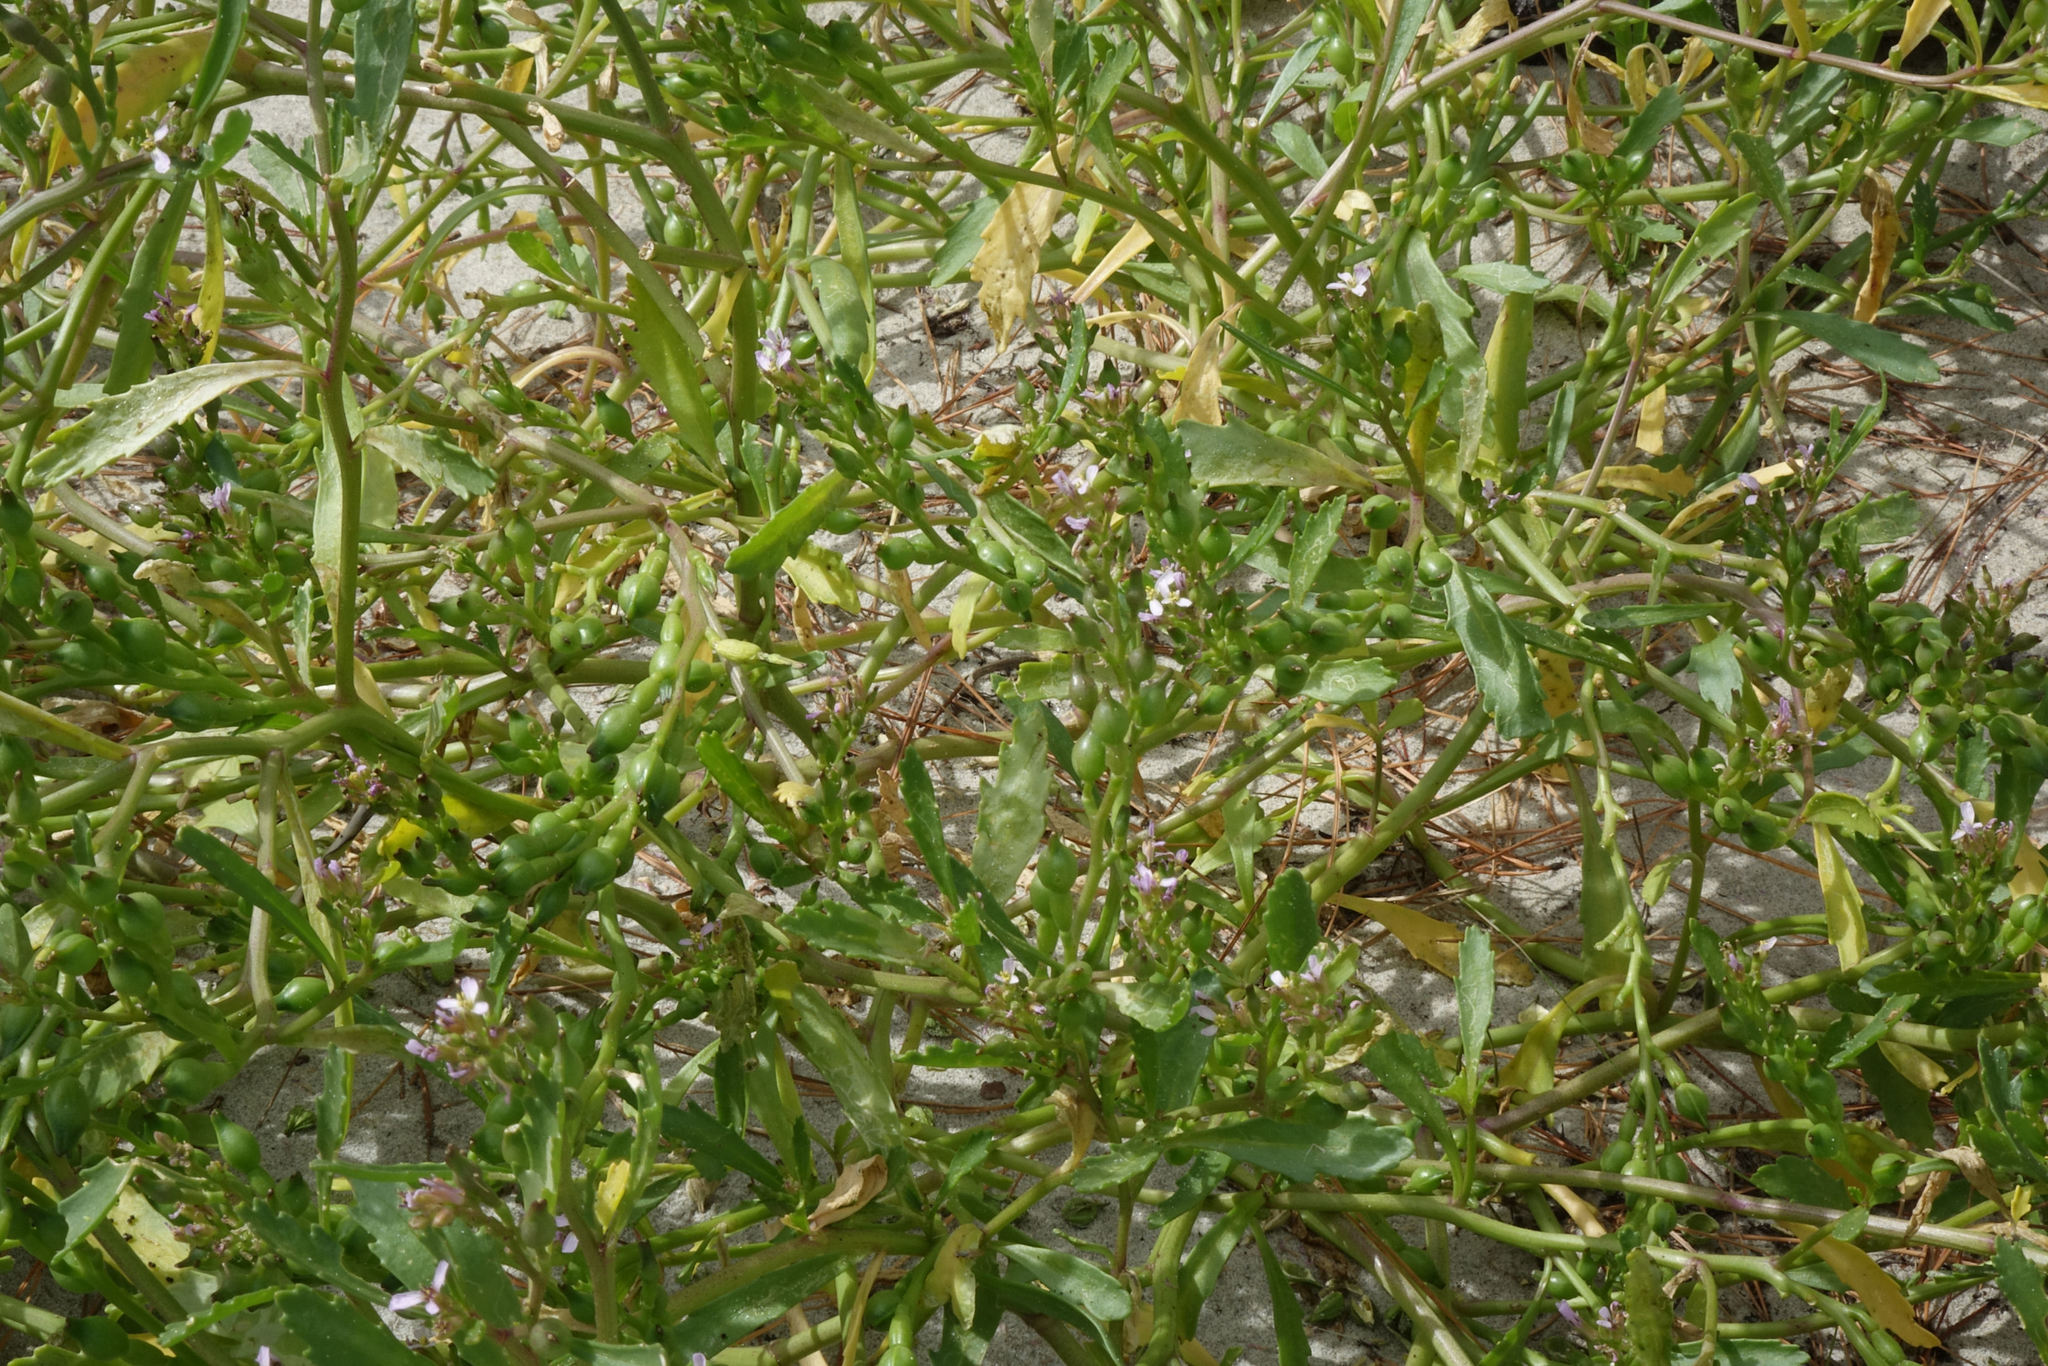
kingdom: Plantae
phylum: Tracheophyta
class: Magnoliopsida
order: Brassicales
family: Brassicaceae
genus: Cakile
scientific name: Cakile edentula
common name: American sea rocket
